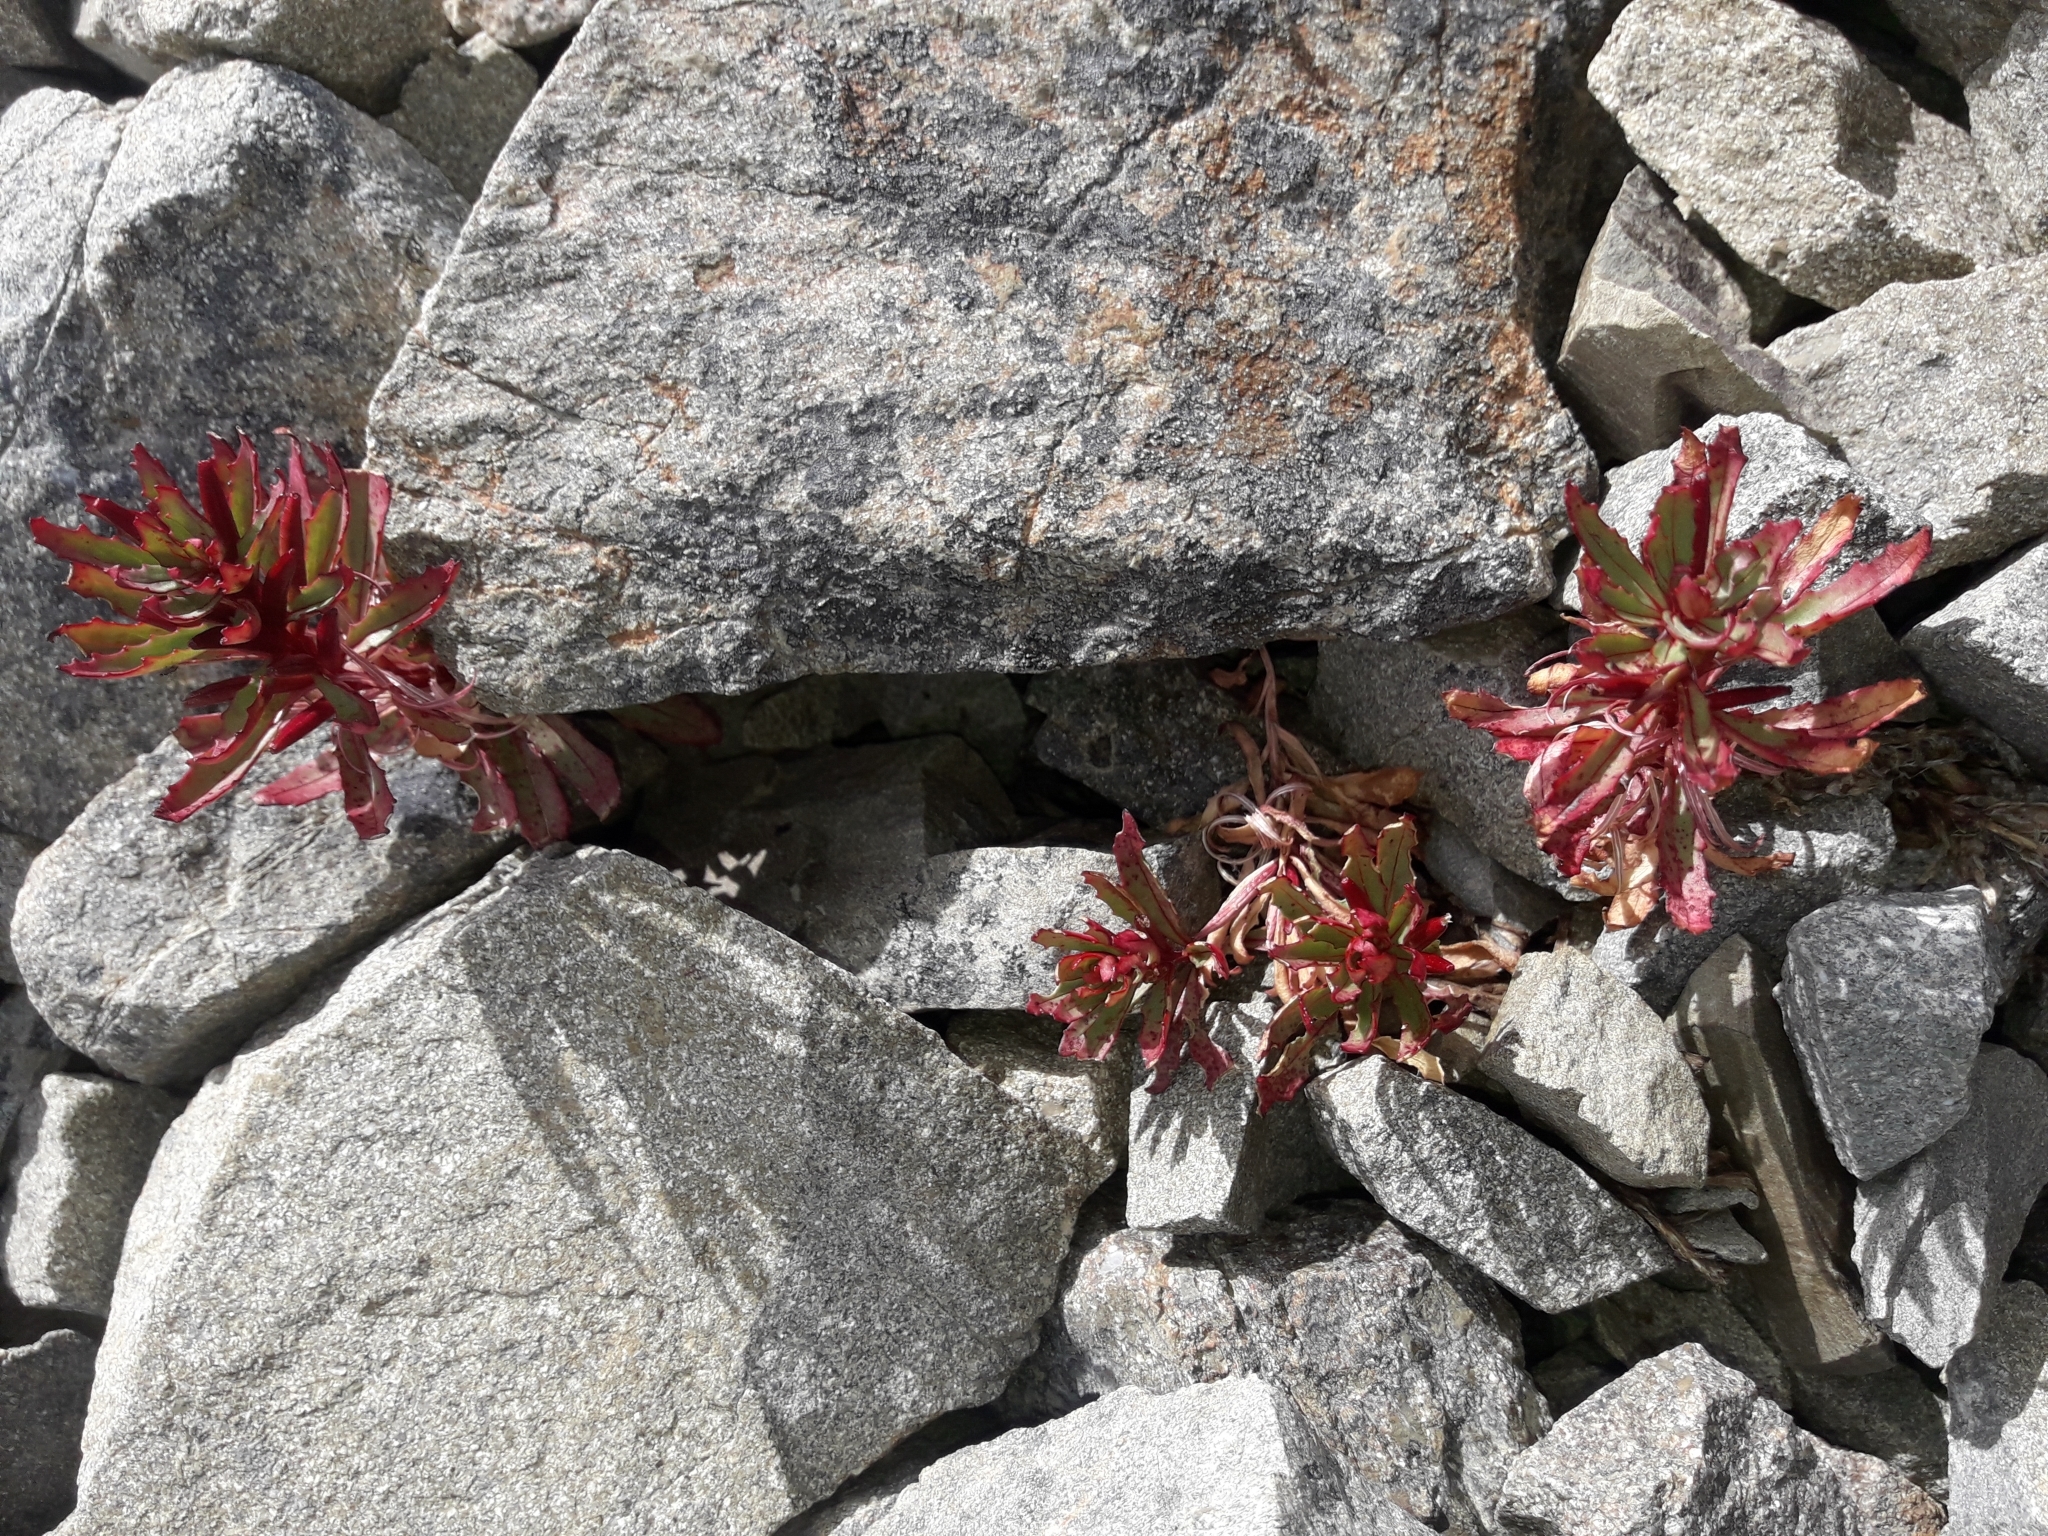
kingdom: Plantae
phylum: Tracheophyta
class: Magnoliopsida
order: Myrtales
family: Onagraceae
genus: Epilobium
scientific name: Epilobium pycnostachyum
